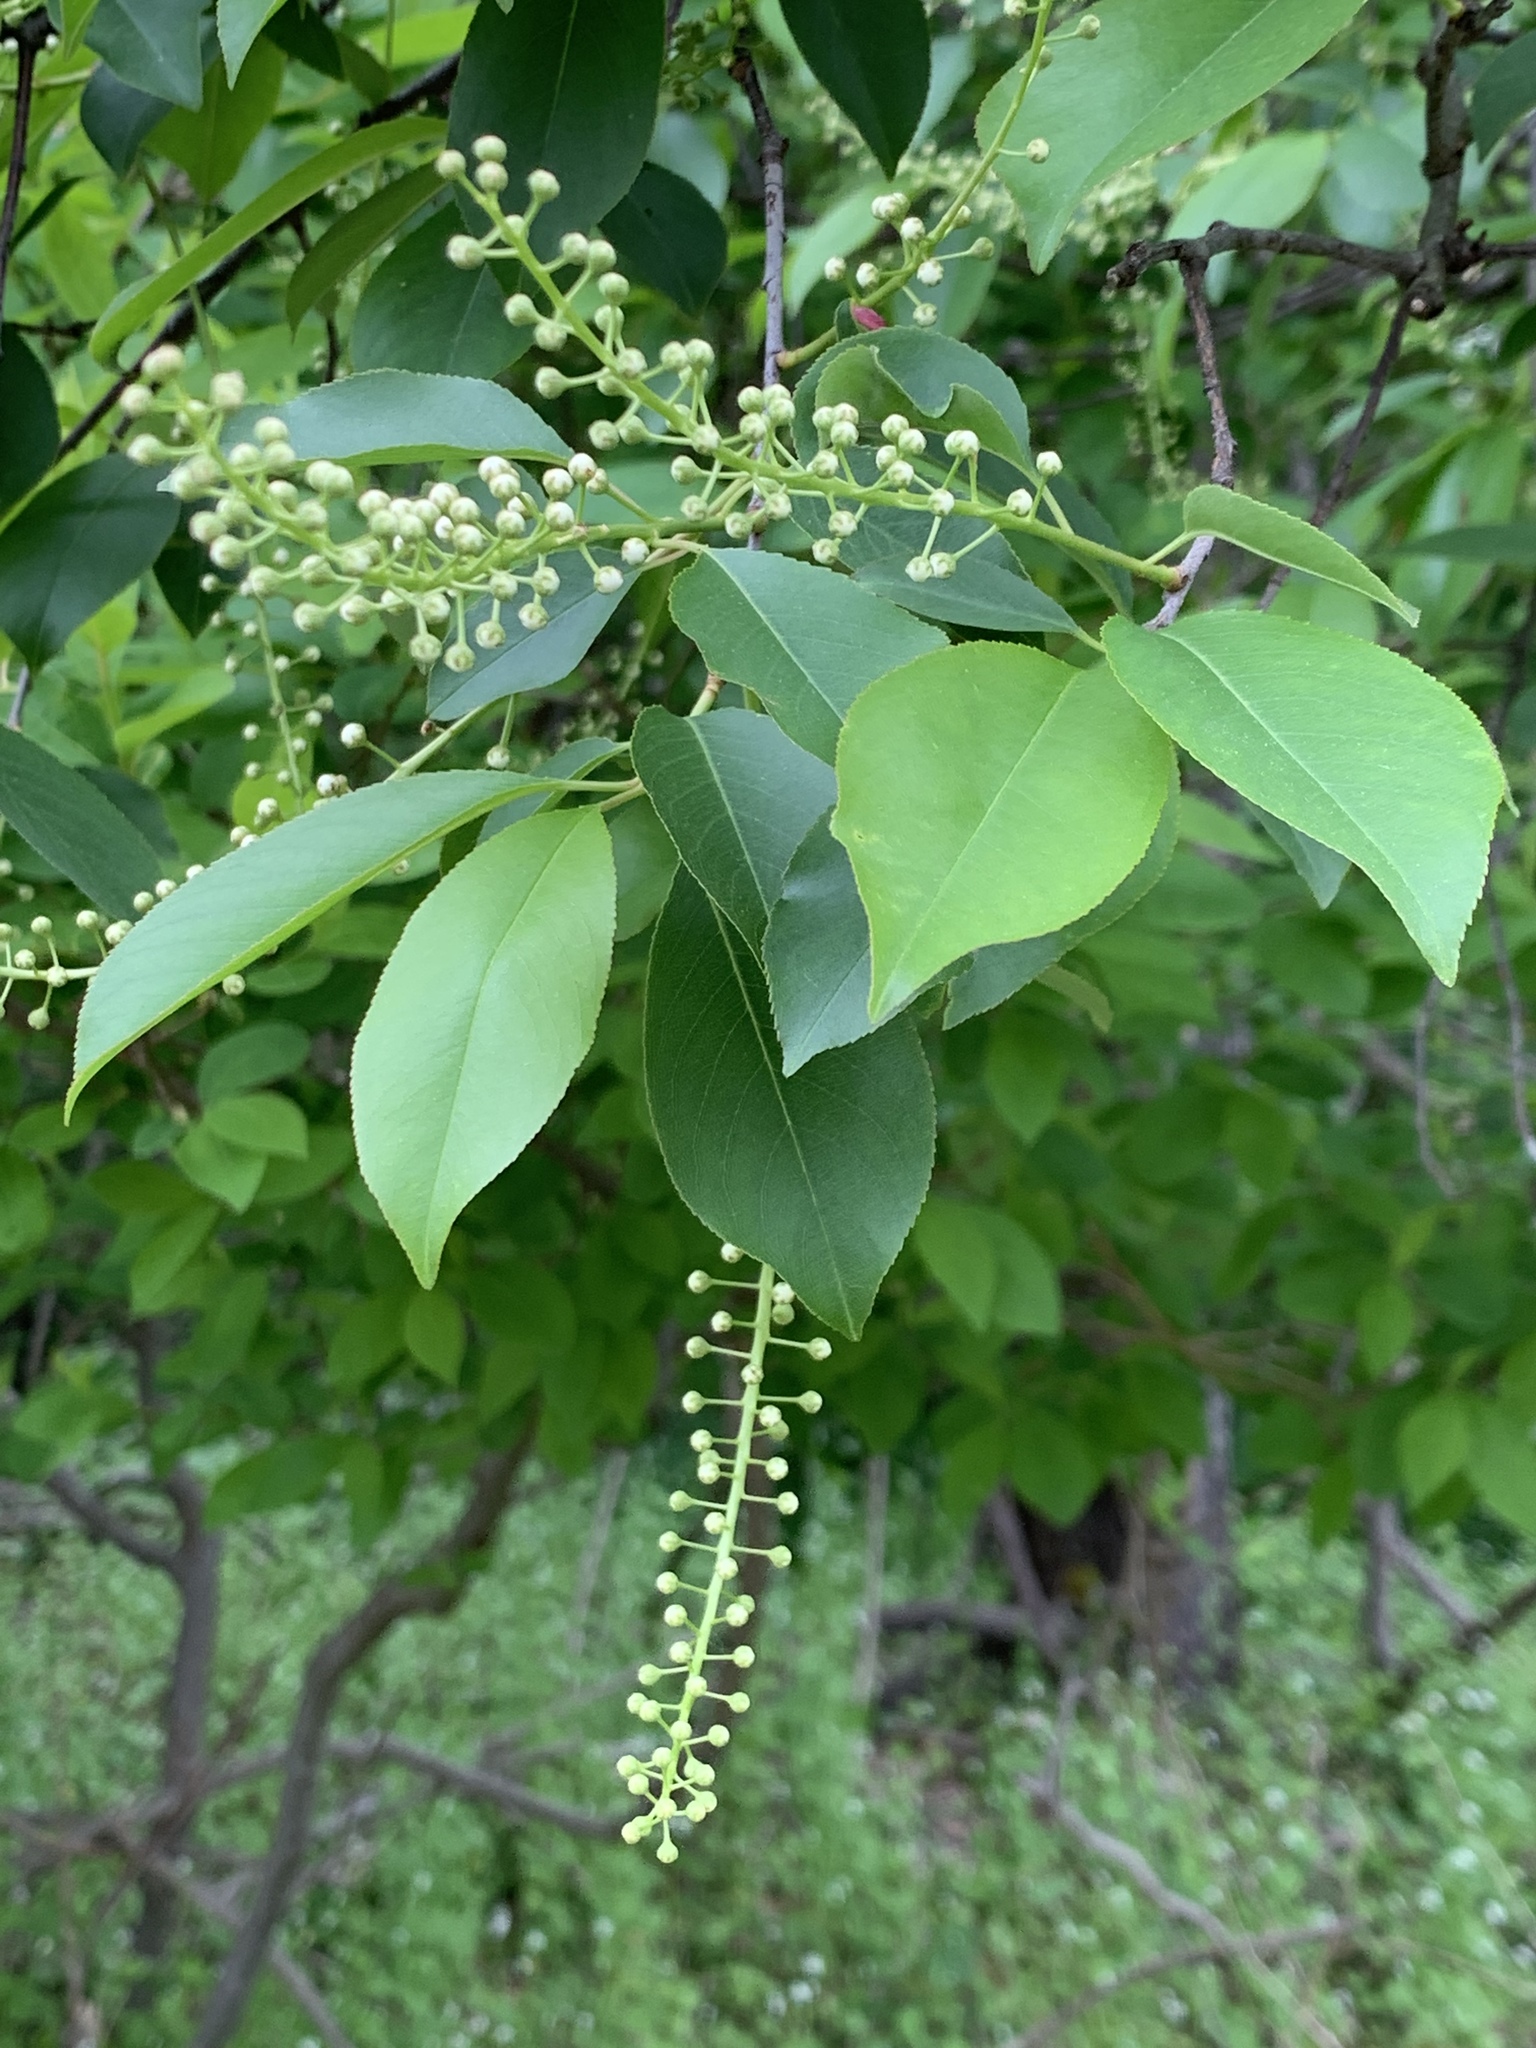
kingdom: Plantae
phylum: Tracheophyta
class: Magnoliopsida
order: Rosales
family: Rosaceae
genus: Prunus
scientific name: Prunus serotina
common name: Black cherry
